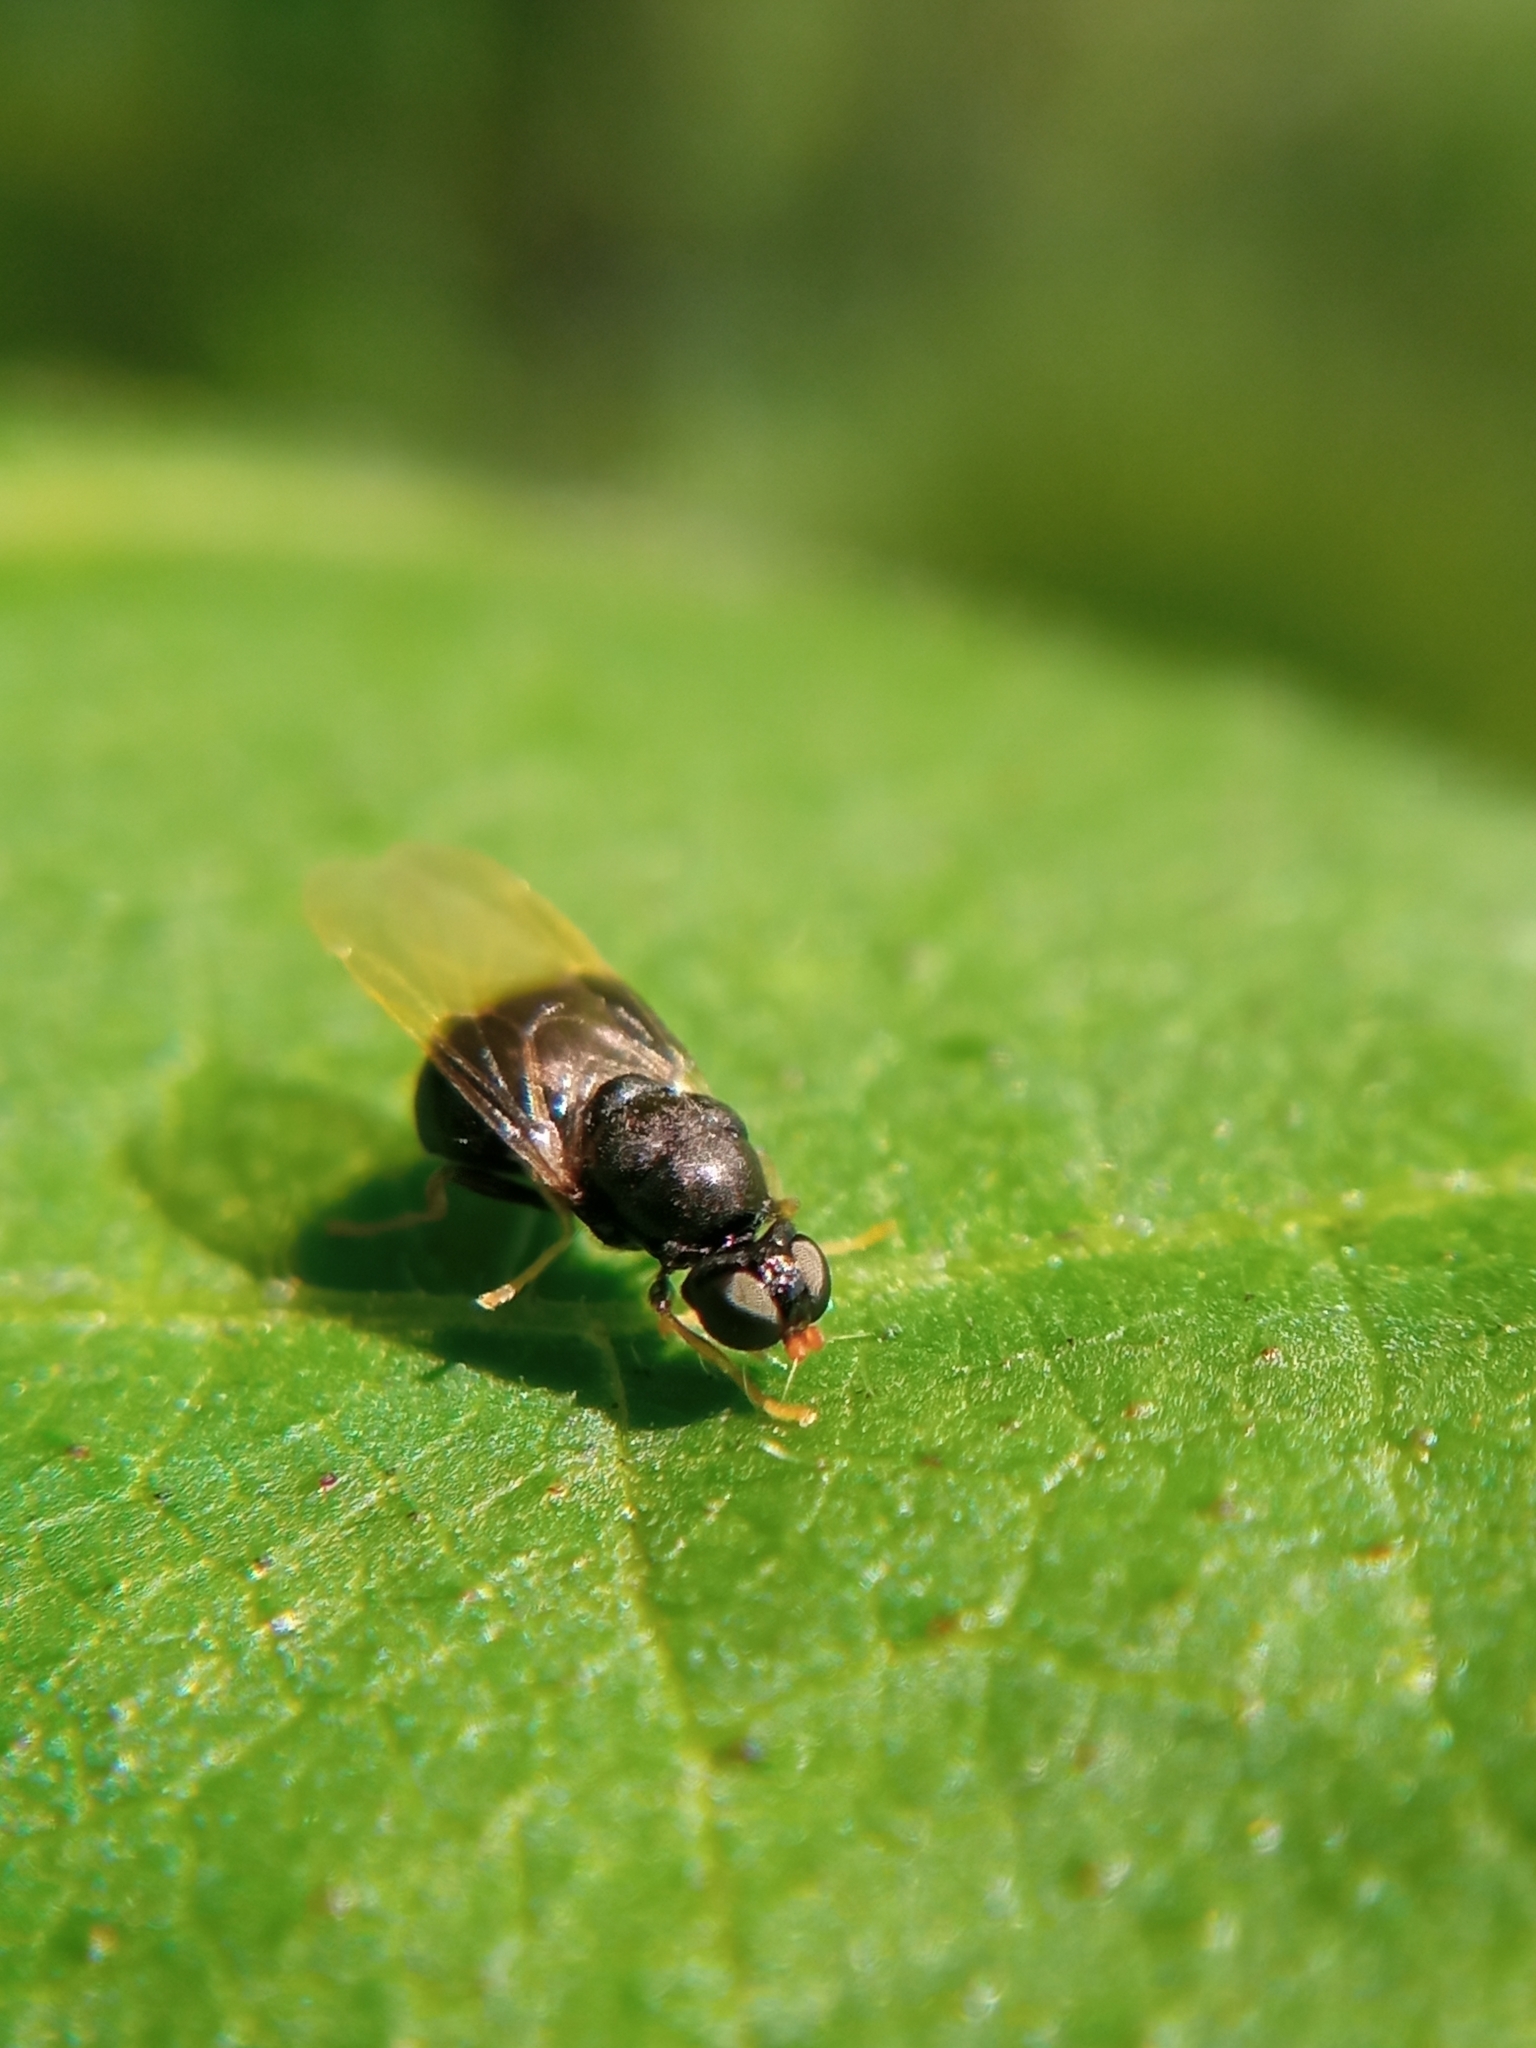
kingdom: Animalia
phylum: Arthropoda
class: Insecta
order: Diptera
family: Stratiomyidae
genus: Pachygaster
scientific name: Pachygaster atra
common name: Dark-winged black
